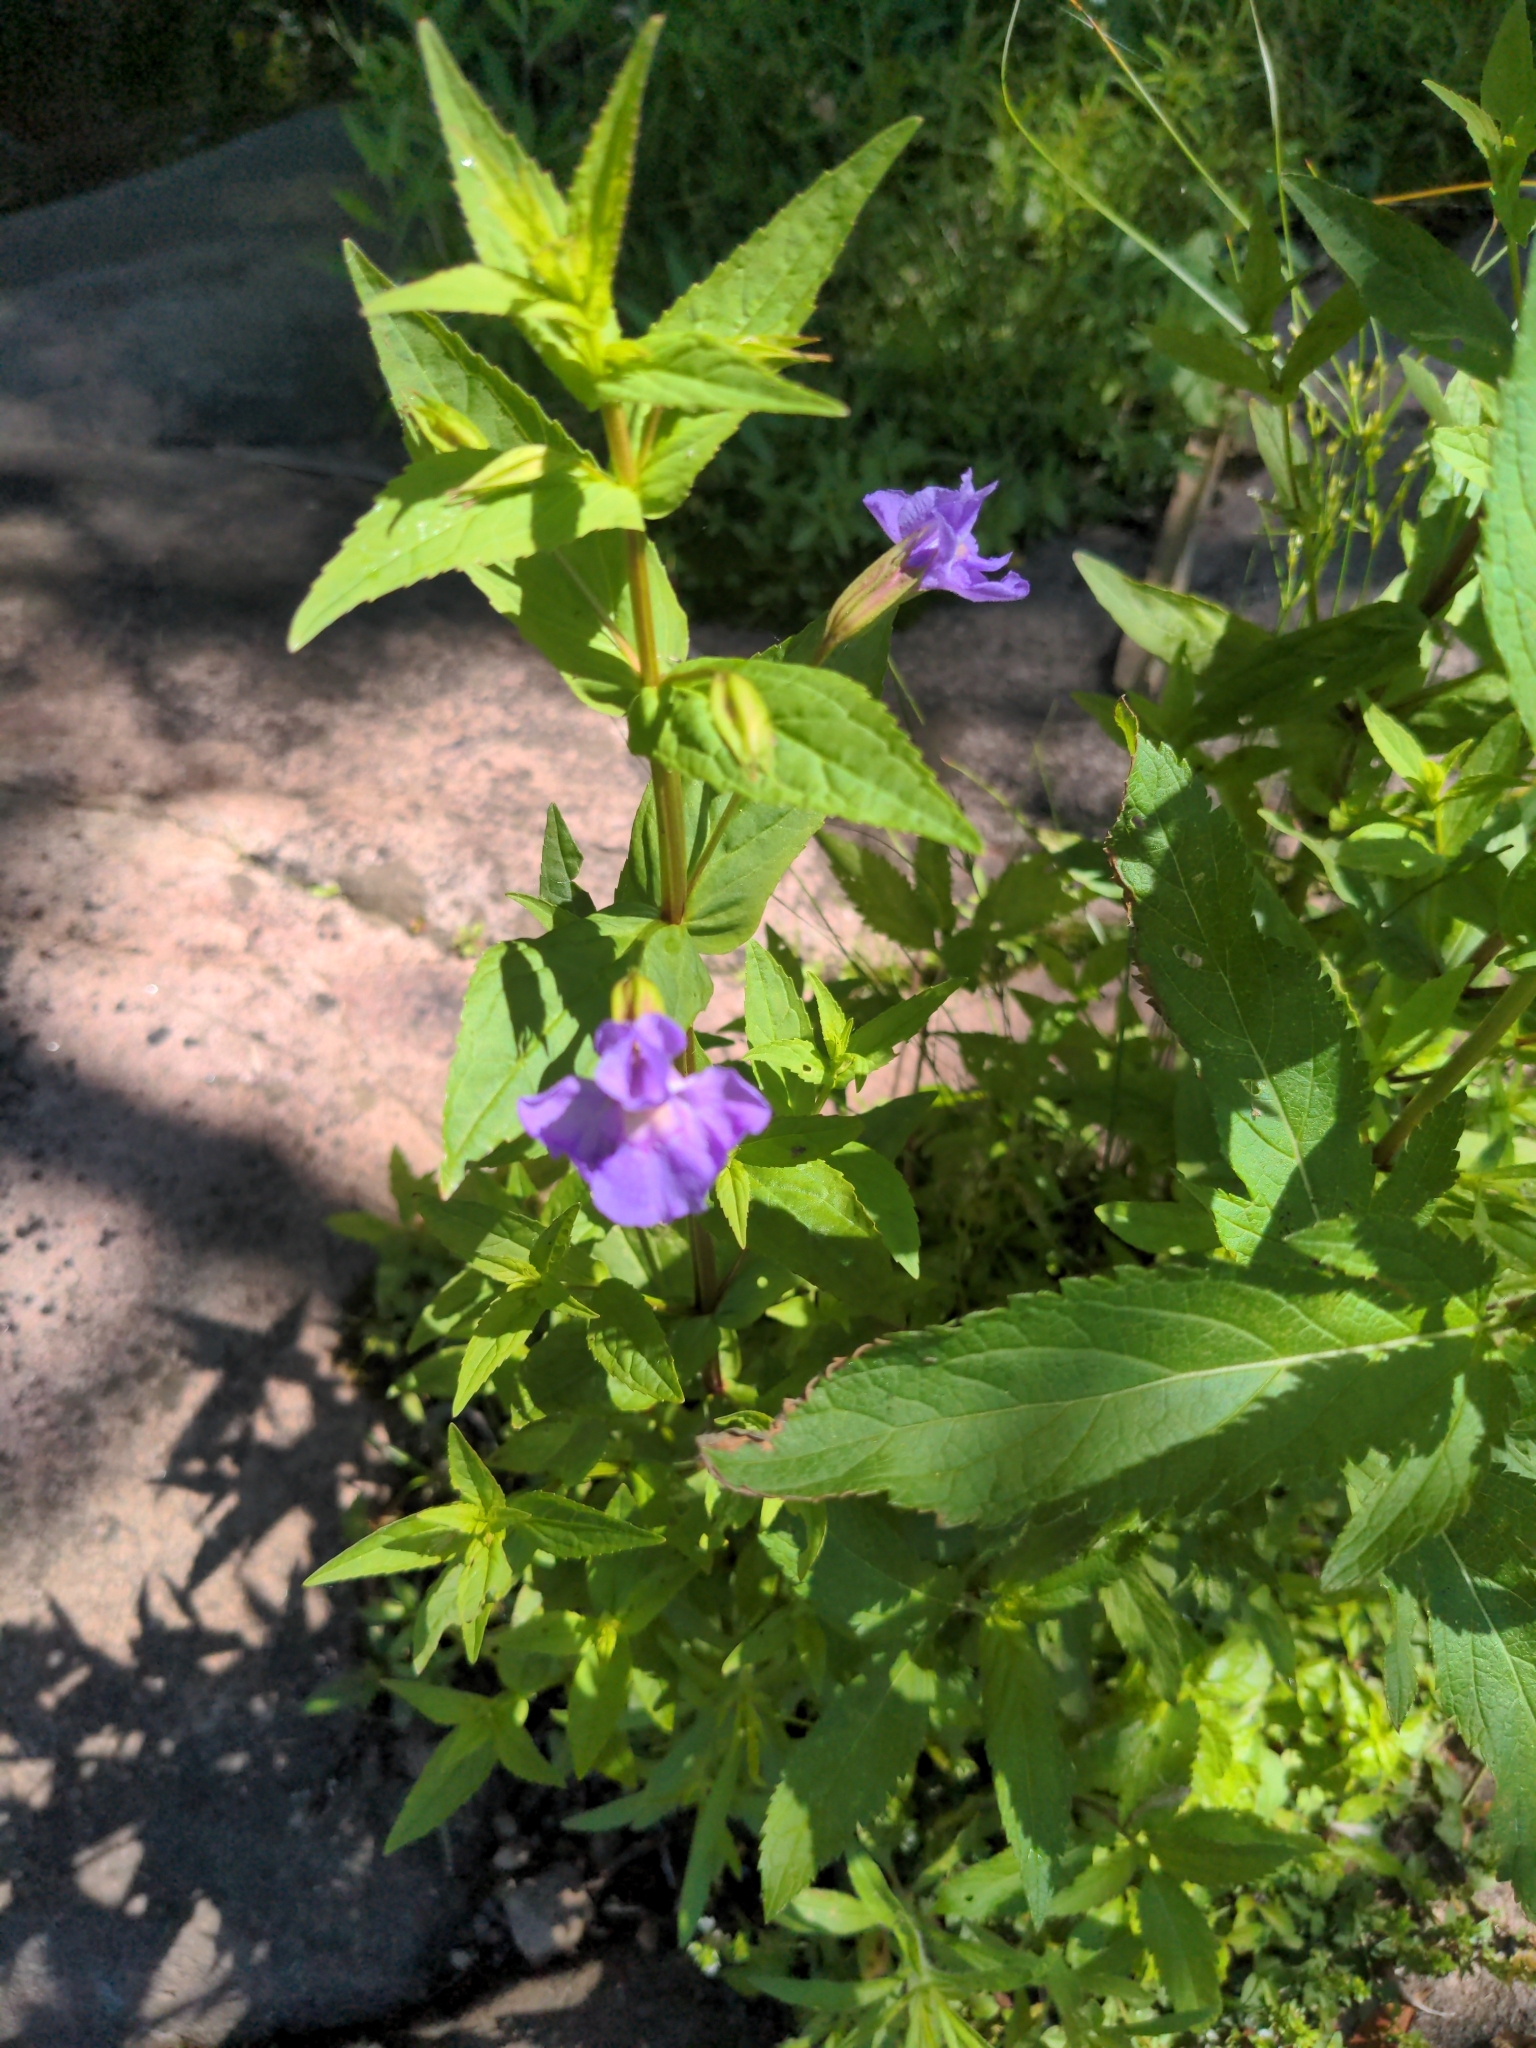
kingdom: Plantae
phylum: Tracheophyta
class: Magnoliopsida
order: Lamiales
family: Phrymaceae
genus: Mimulus
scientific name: Mimulus ringens
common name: Allegheny monkeyflower
